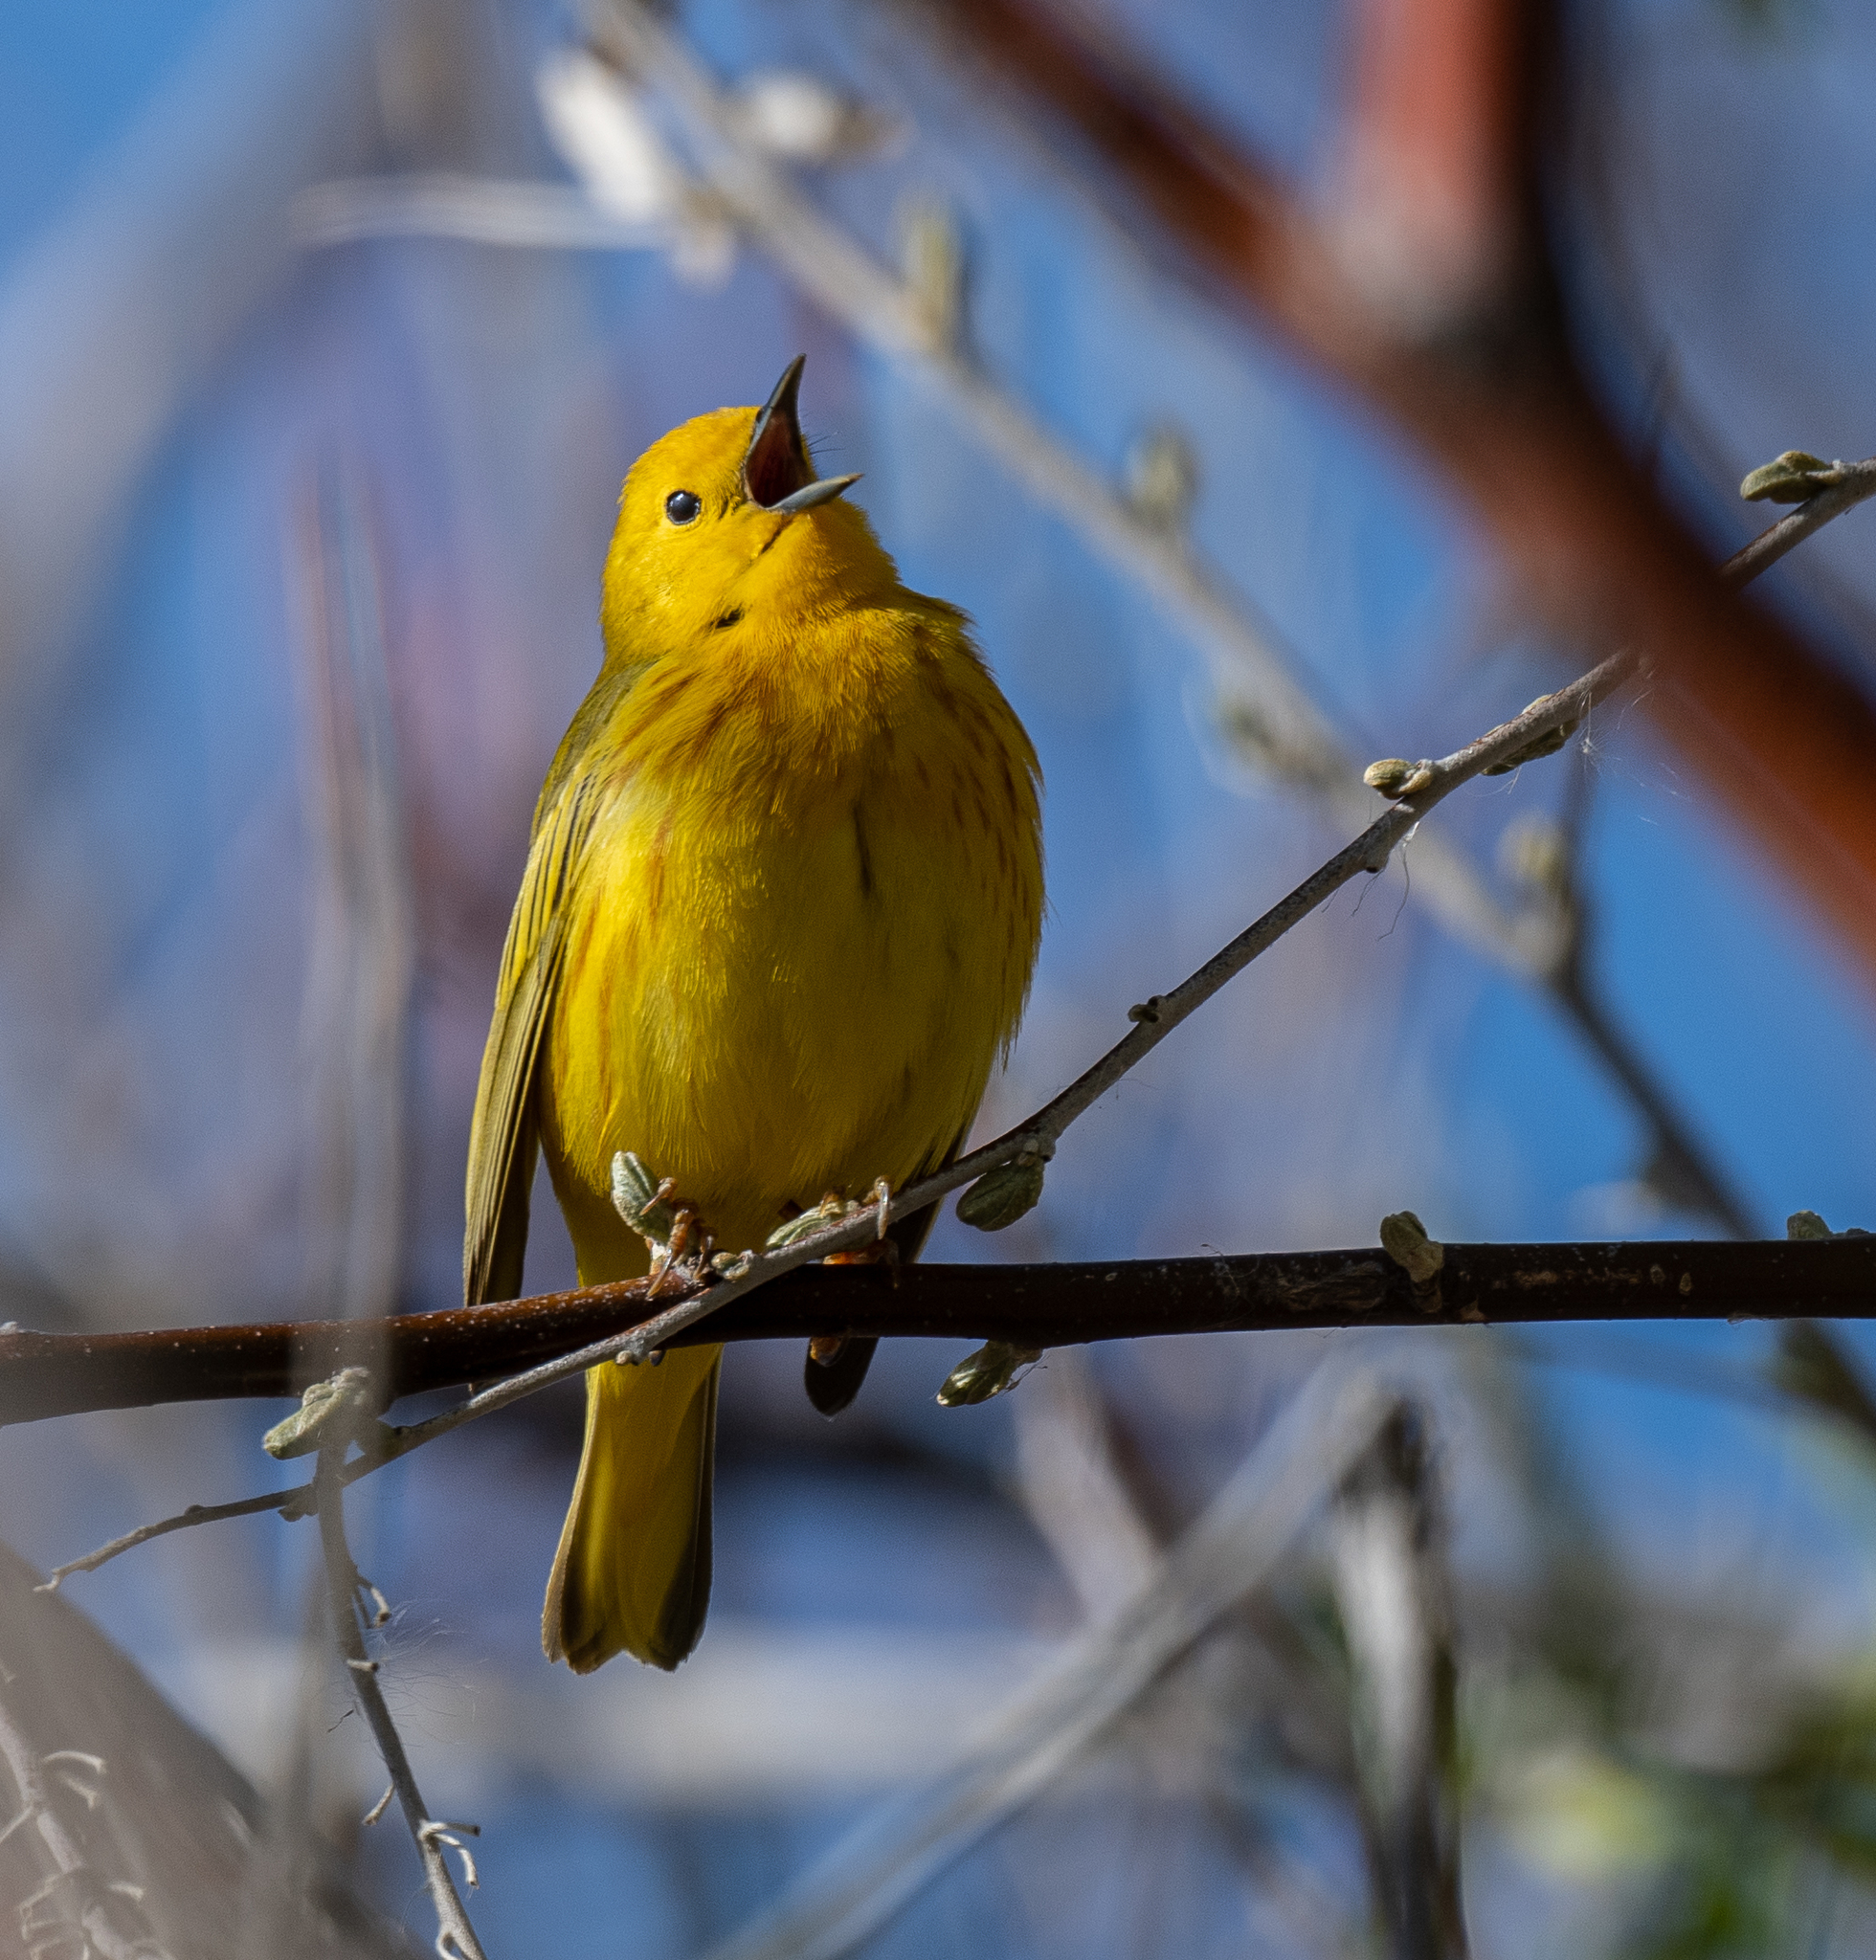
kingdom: Animalia
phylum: Chordata
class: Aves
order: Passeriformes
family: Parulidae
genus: Setophaga
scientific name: Setophaga petechia
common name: Yellow warbler
